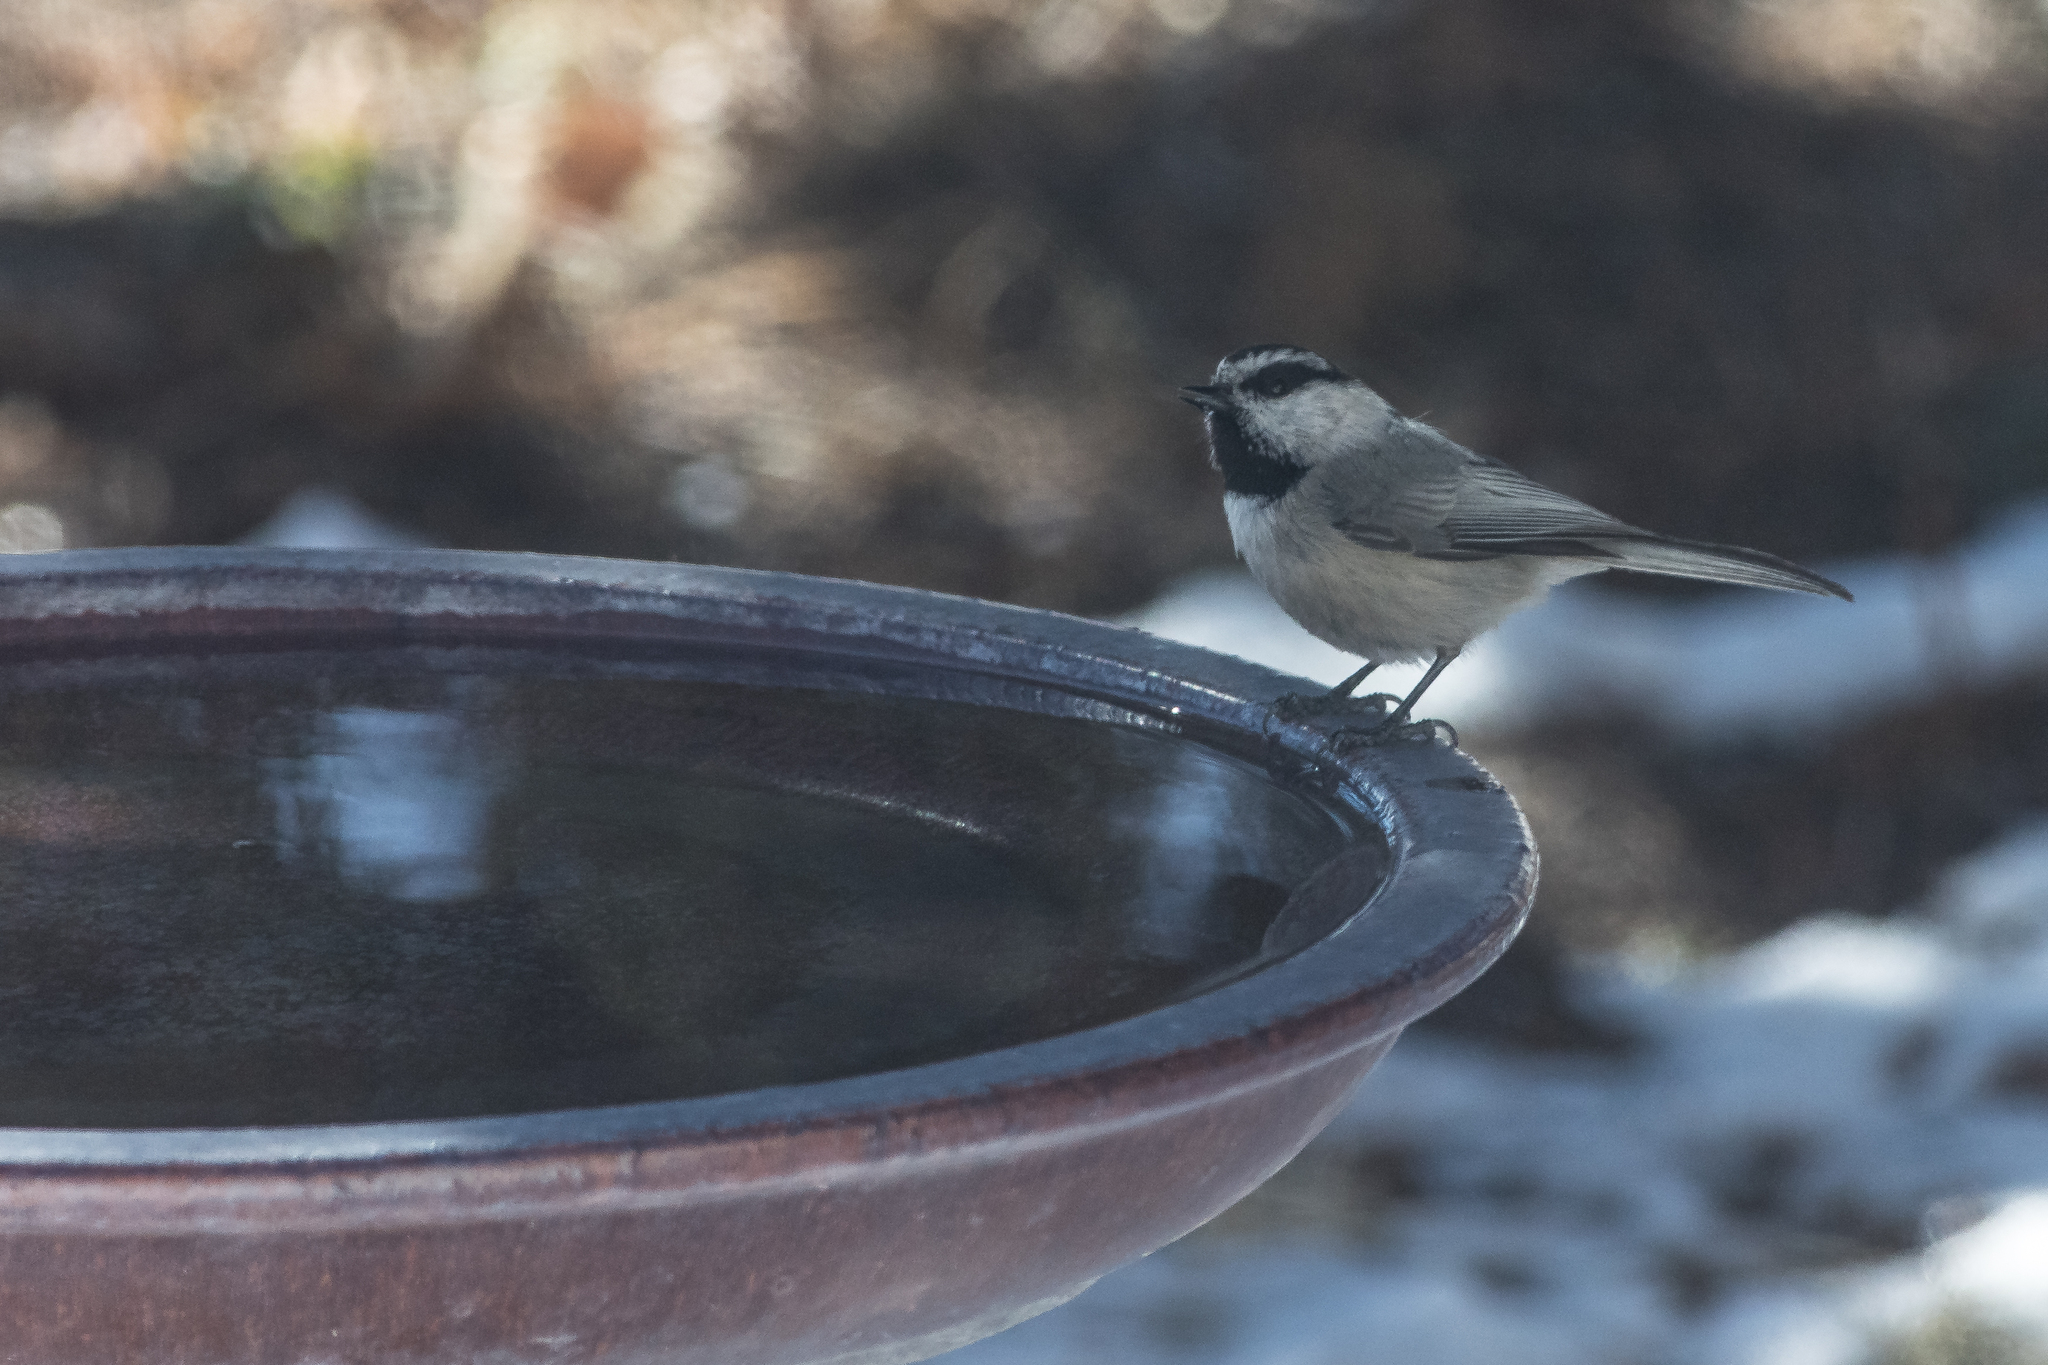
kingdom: Animalia
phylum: Chordata
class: Aves
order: Passeriformes
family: Paridae
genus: Poecile
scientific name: Poecile gambeli
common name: Mountain chickadee
